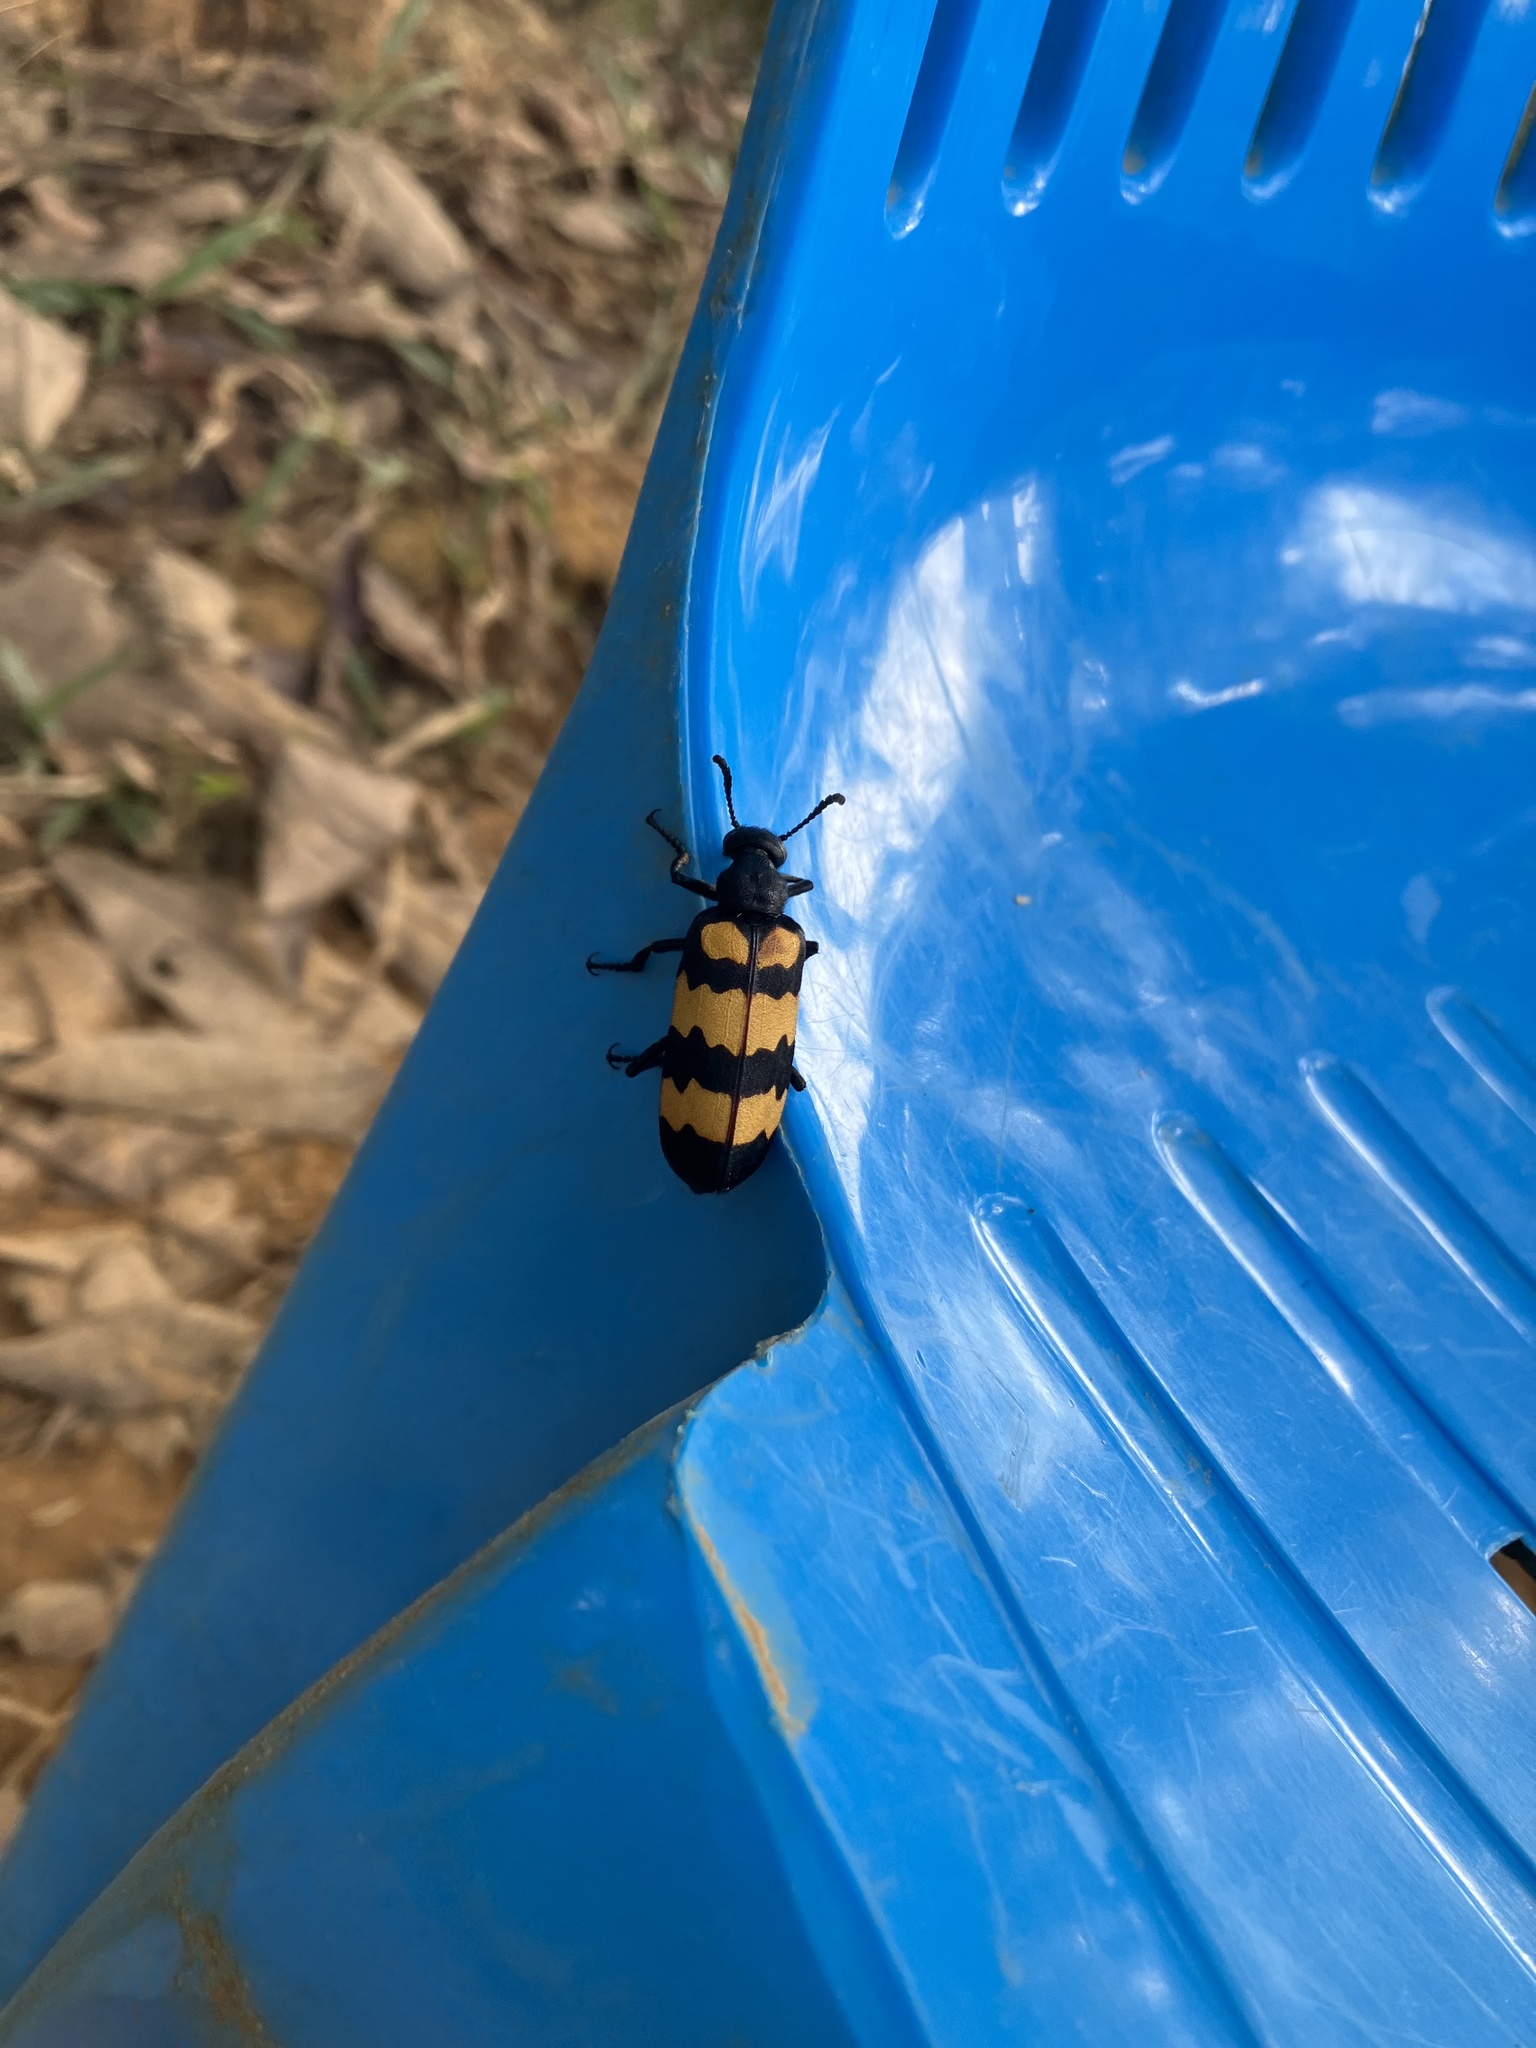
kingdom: Animalia
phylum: Arthropoda
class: Insecta
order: Coleoptera
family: Meloidae
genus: Hycleus
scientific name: Hycleus phaleratus
